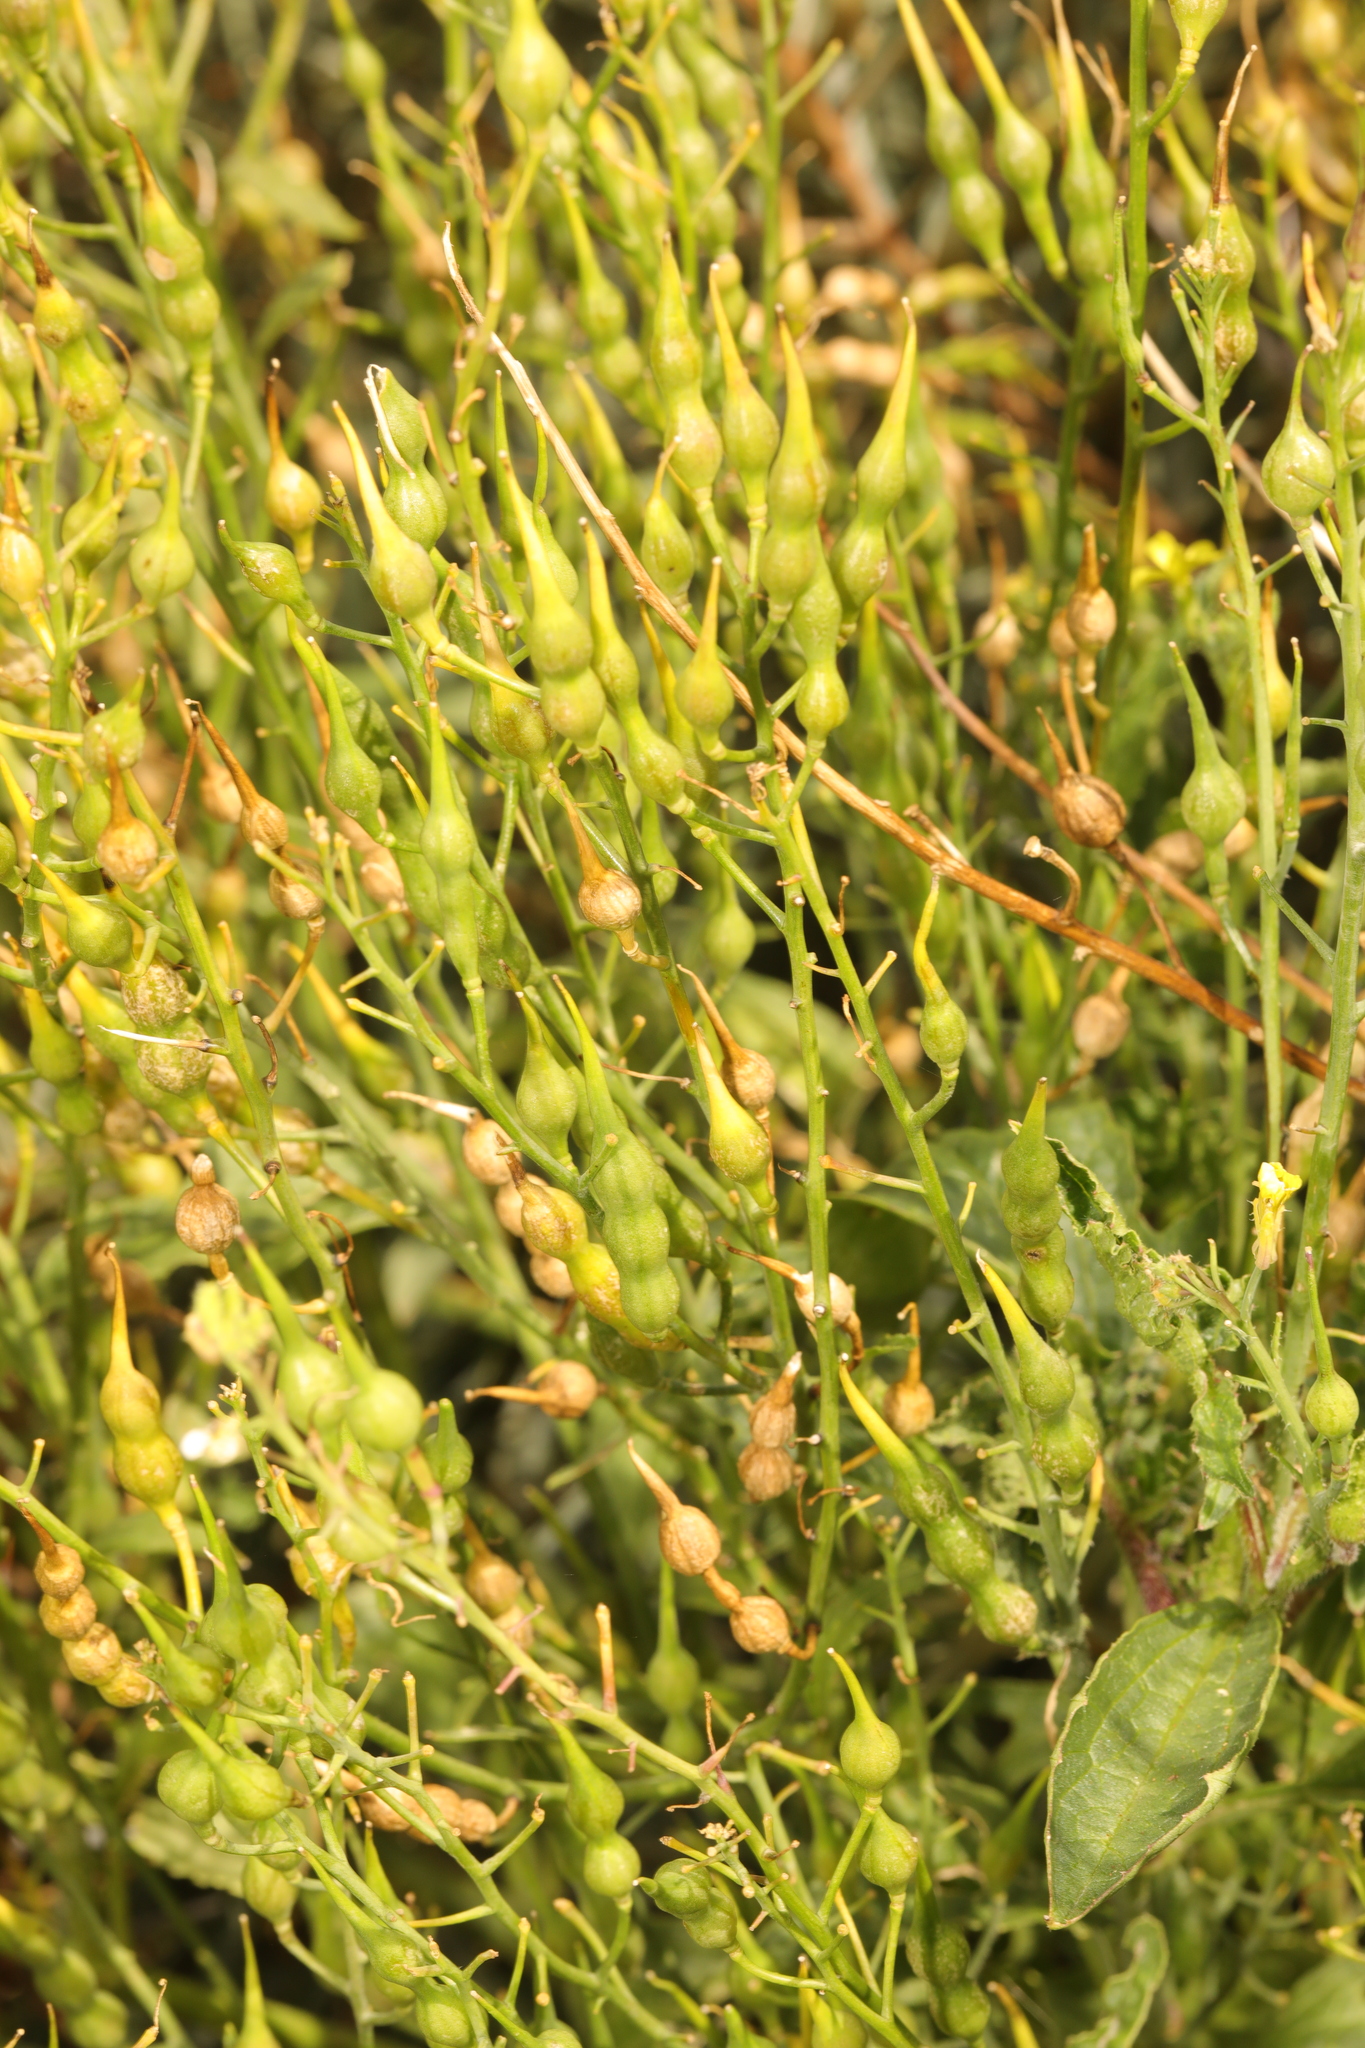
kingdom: Plantae
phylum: Tracheophyta
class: Magnoliopsida
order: Brassicales
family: Brassicaceae
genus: Raphanus
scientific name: Raphanus raphanistrum
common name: Wild radish
